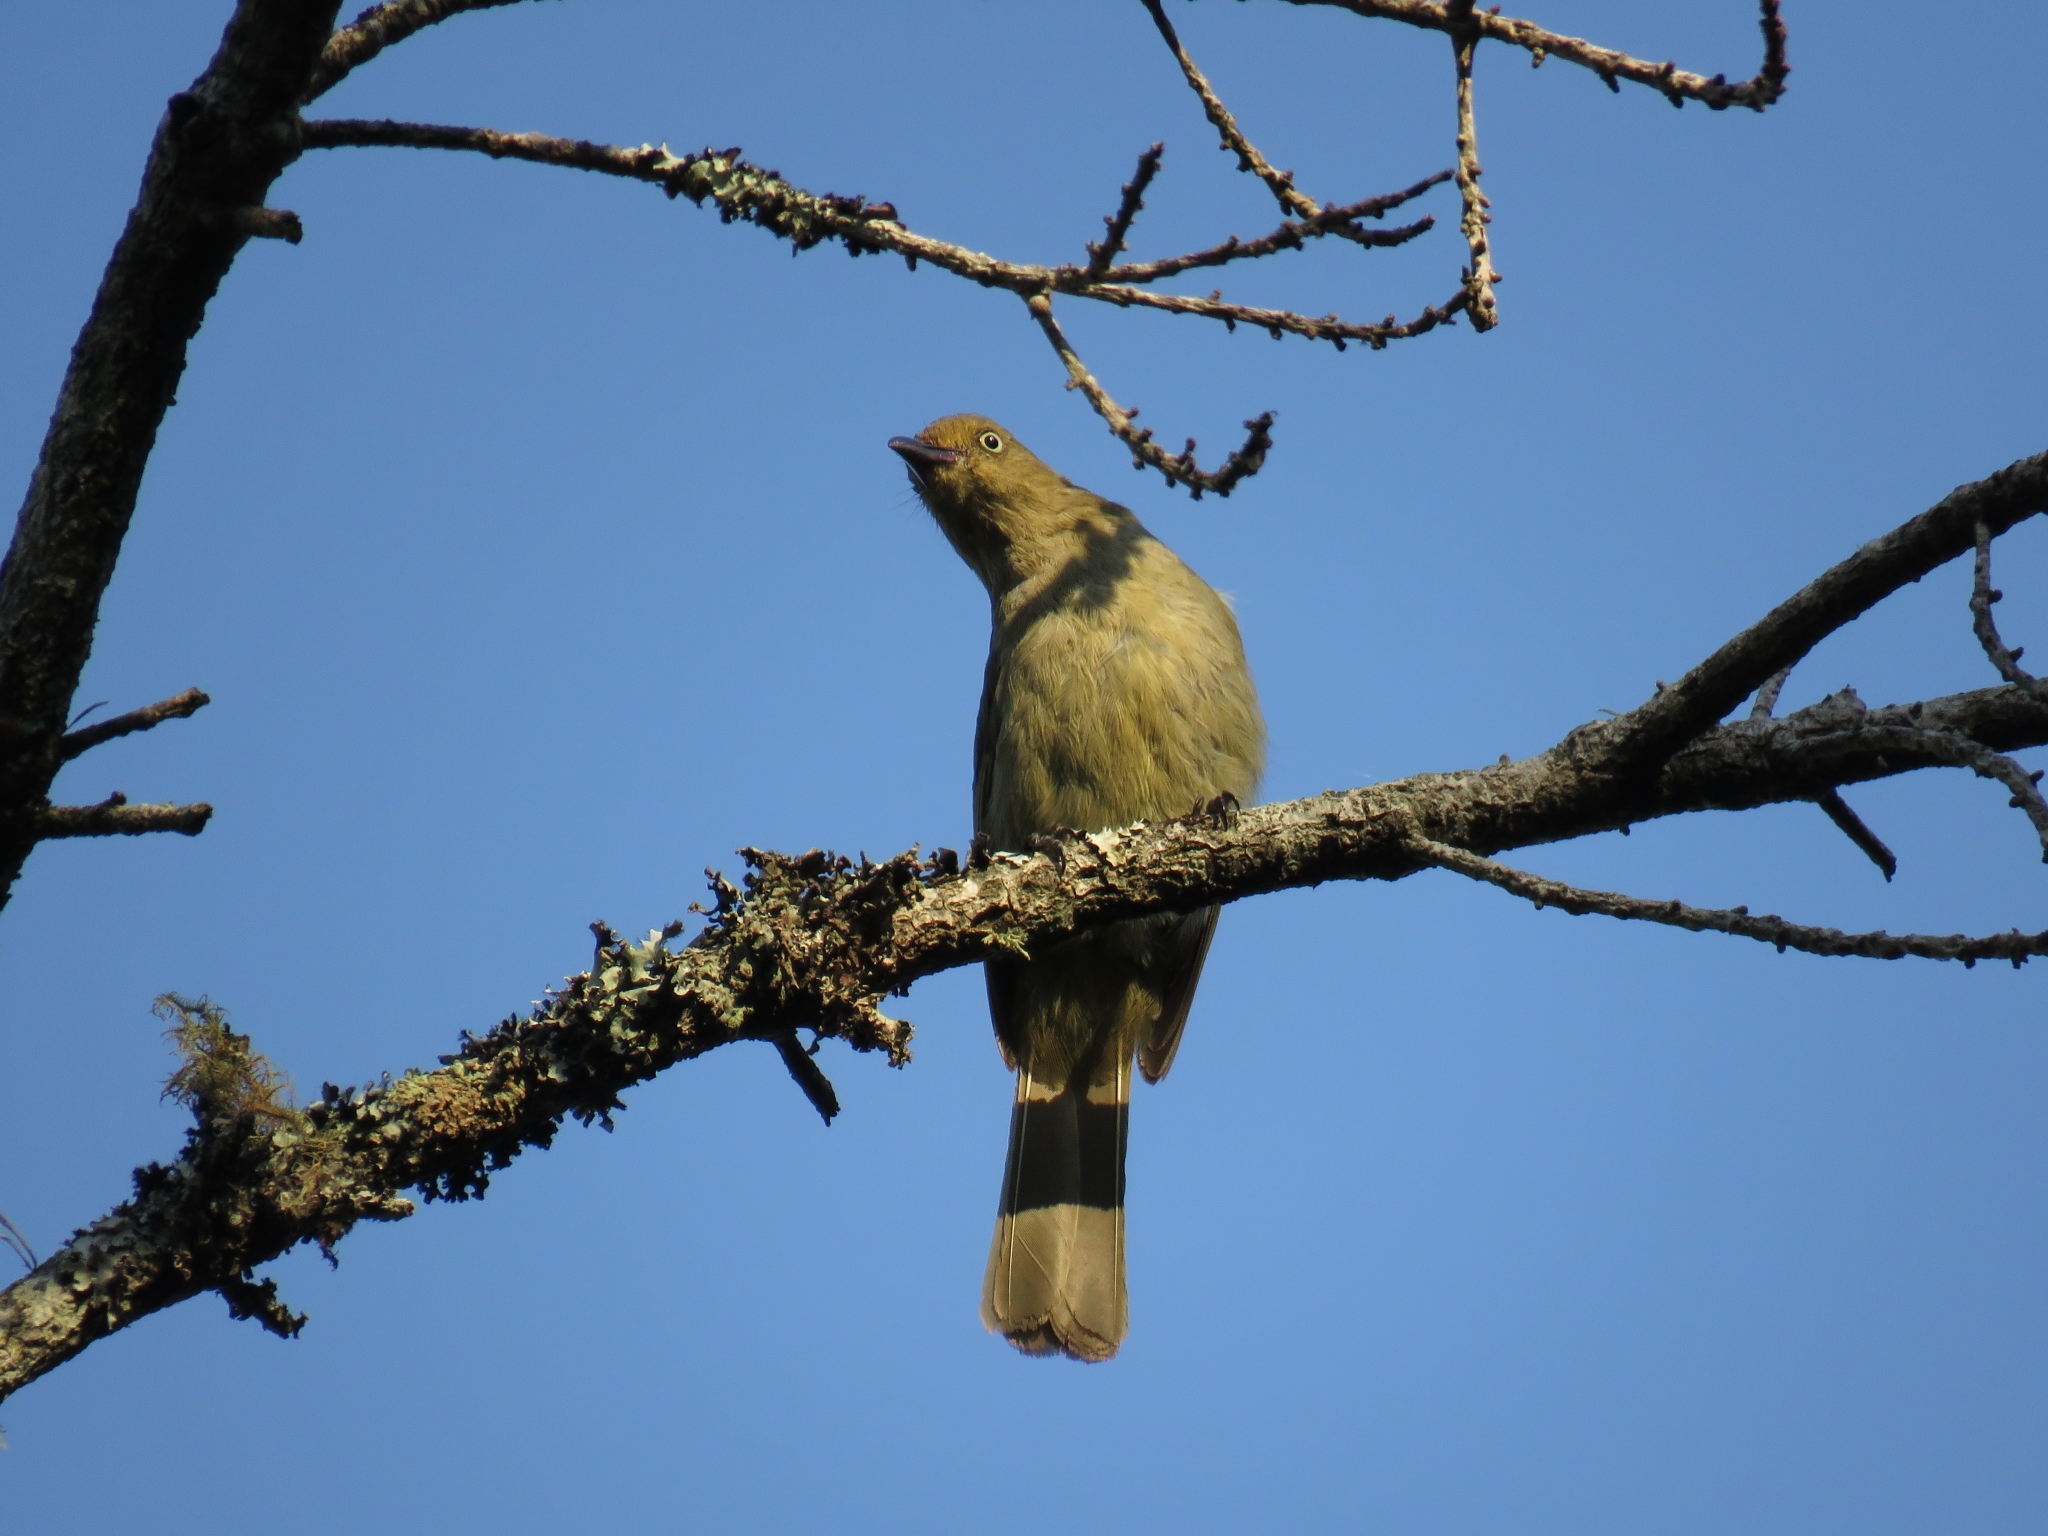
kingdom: Animalia
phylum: Chordata
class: Aves
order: Passeriformes
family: Pycnonotidae
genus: Andropadus
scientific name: Andropadus importunus
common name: Sombre greenbul
